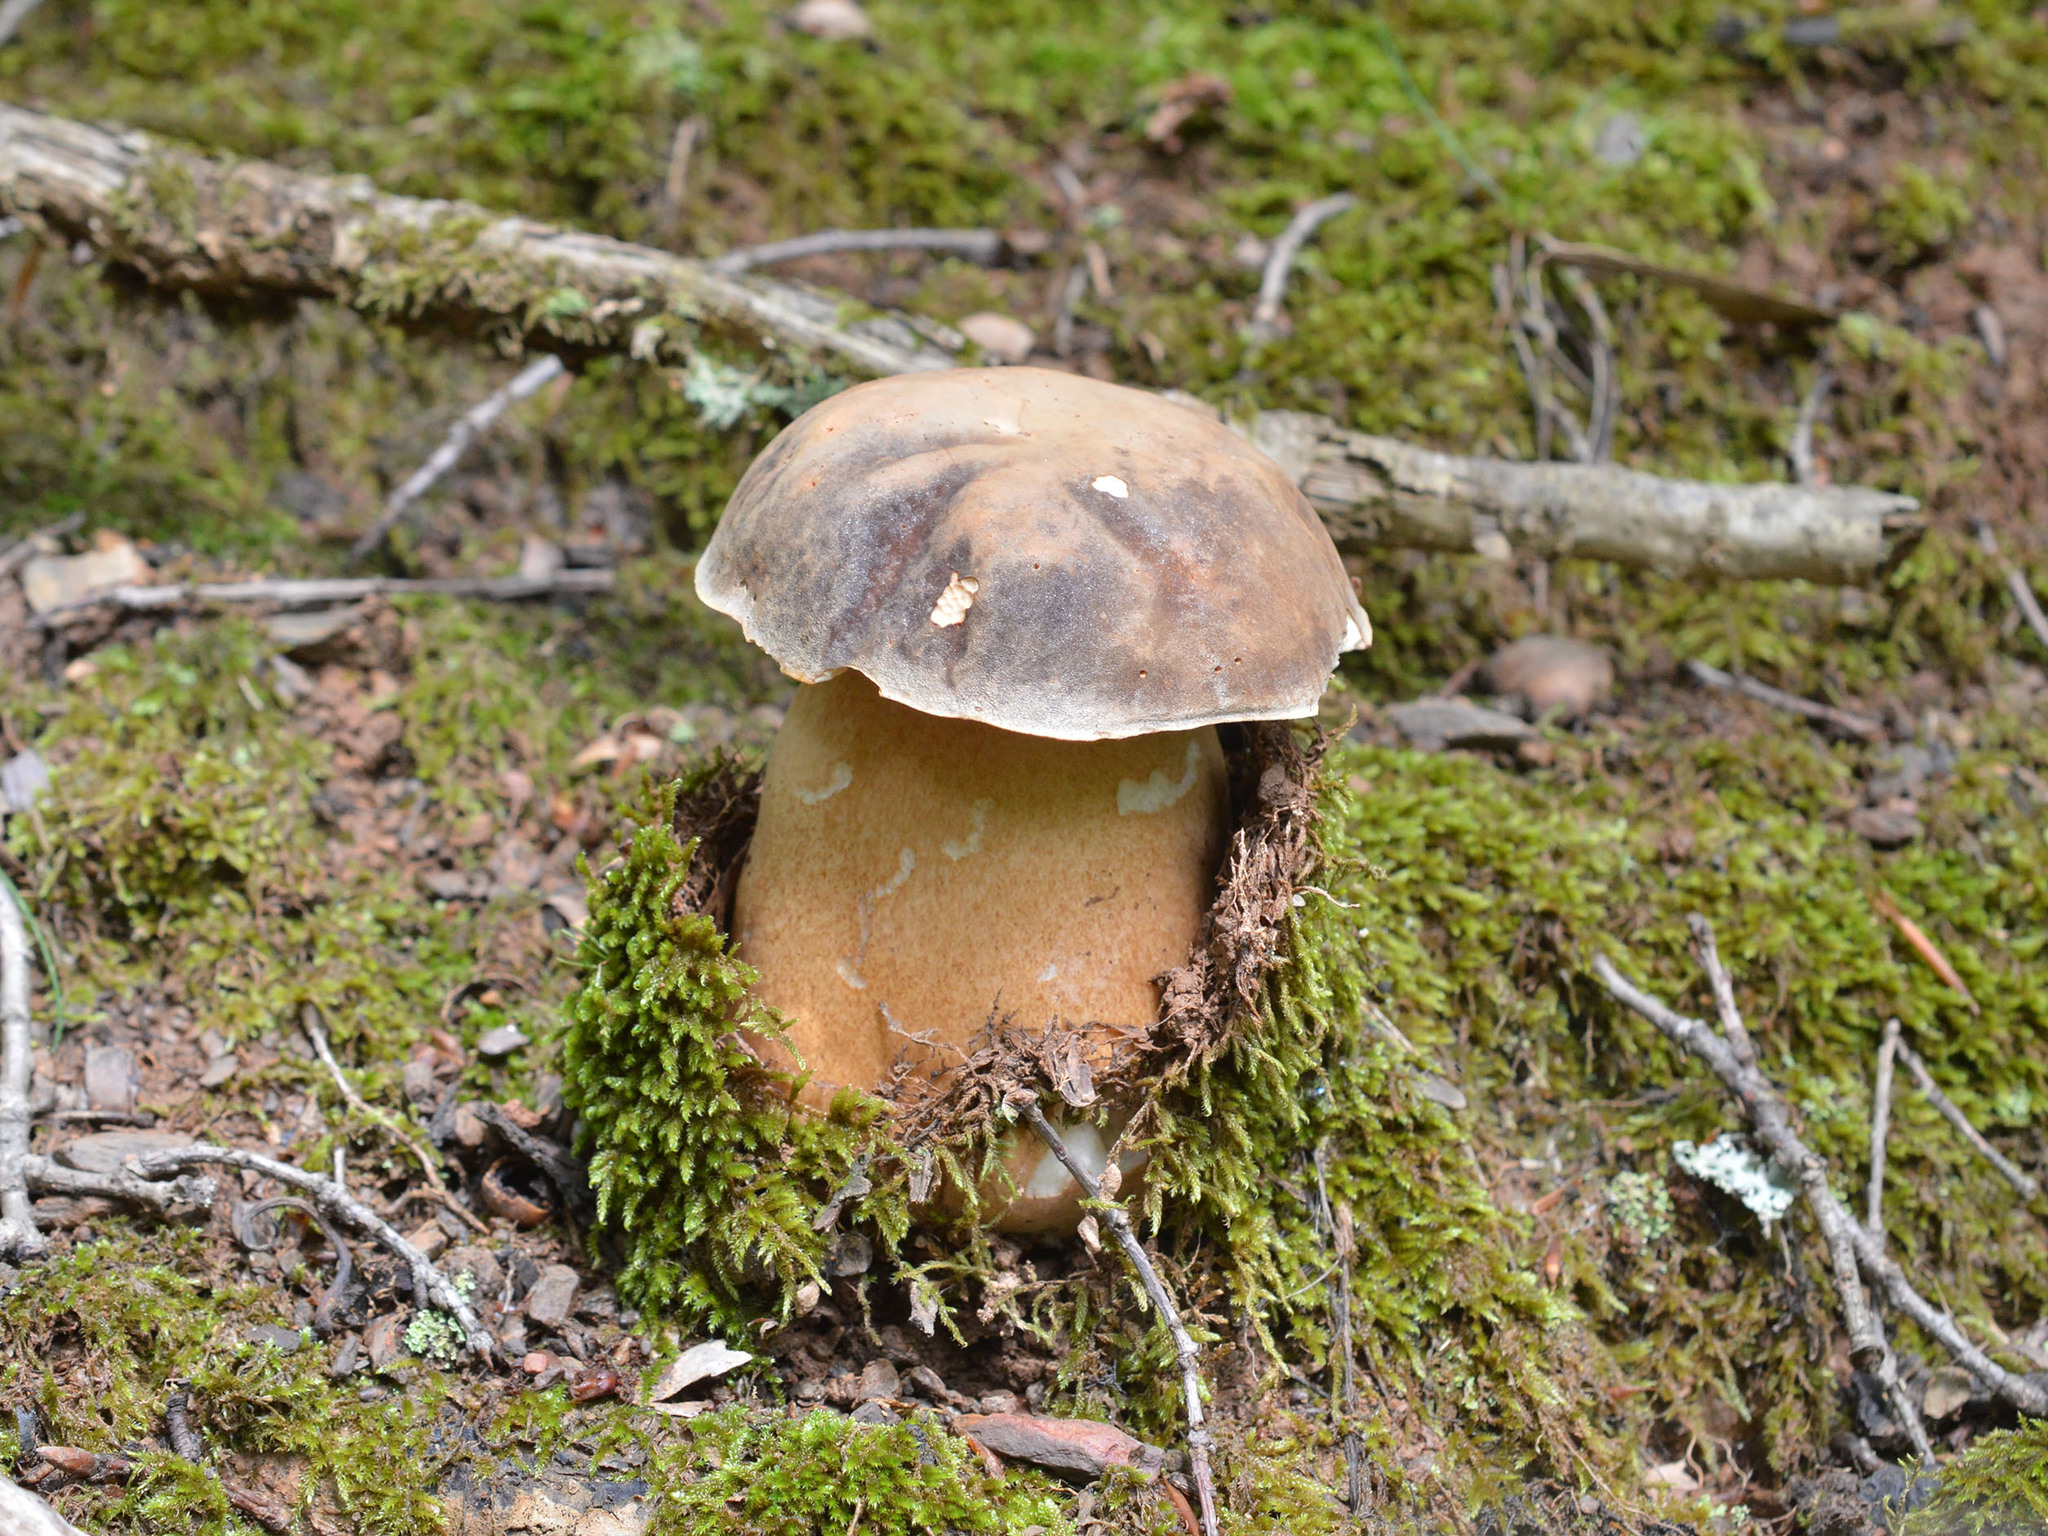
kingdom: Fungi
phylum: Basidiomycota
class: Agaricomycetes
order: Boletales
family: Boletaceae
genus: Boletus
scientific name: Boletus aereus
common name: Bronze bolete
